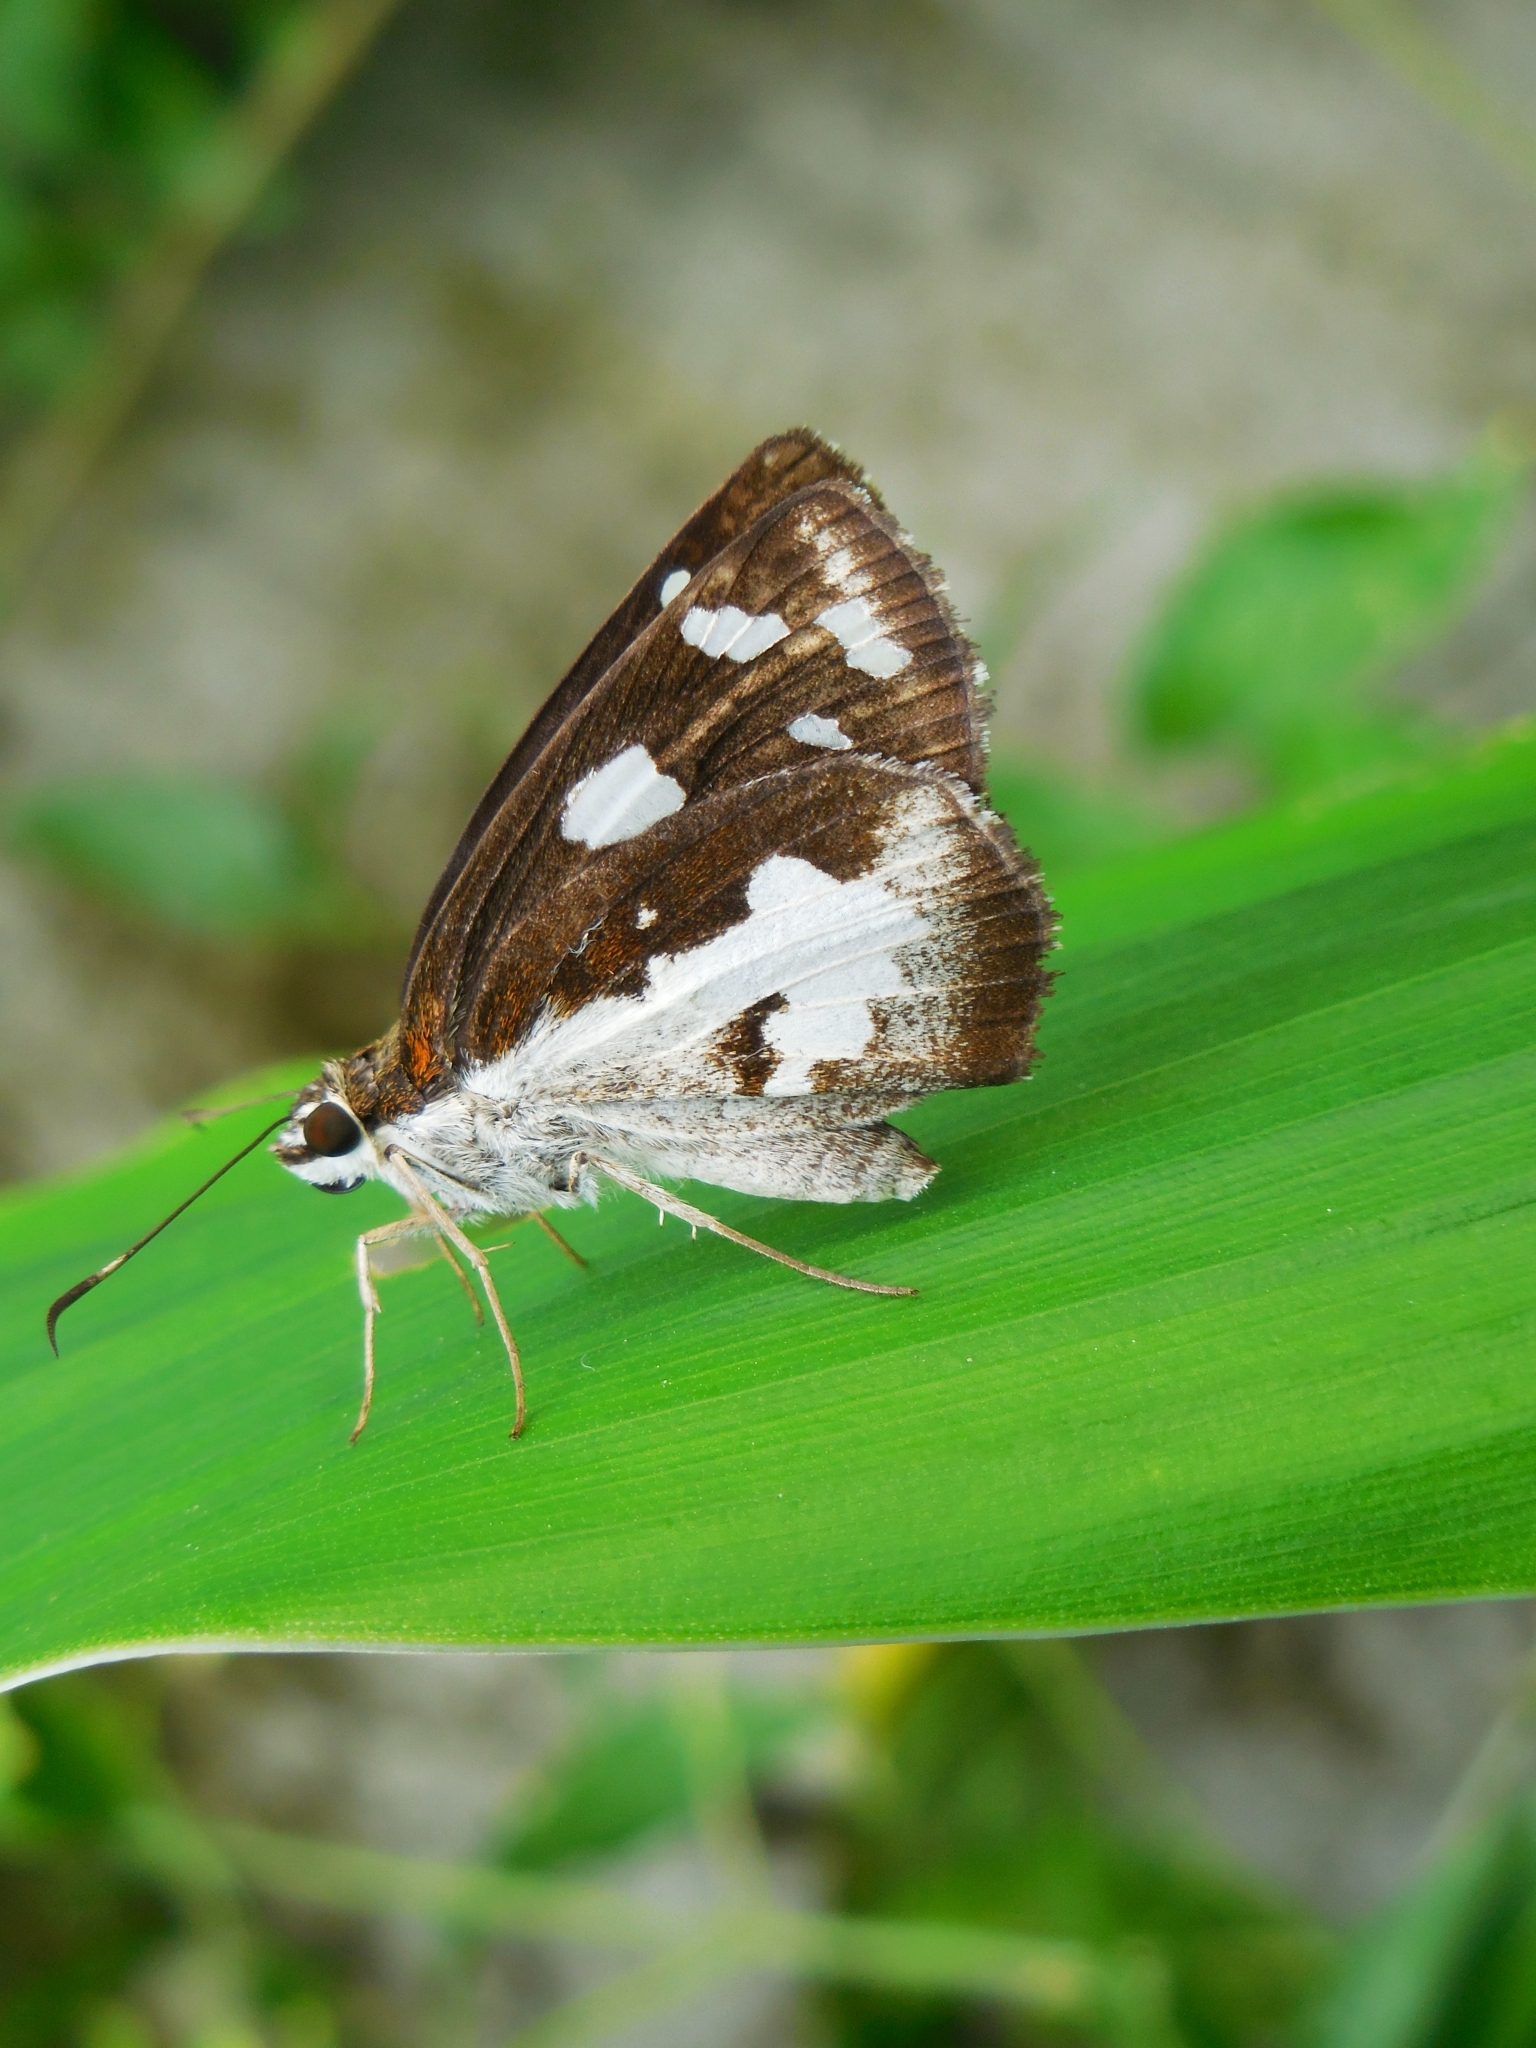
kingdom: Animalia
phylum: Arthropoda
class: Insecta
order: Lepidoptera
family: Hesperiidae
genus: Udaspes
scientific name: Udaspes folus
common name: Grass demon
